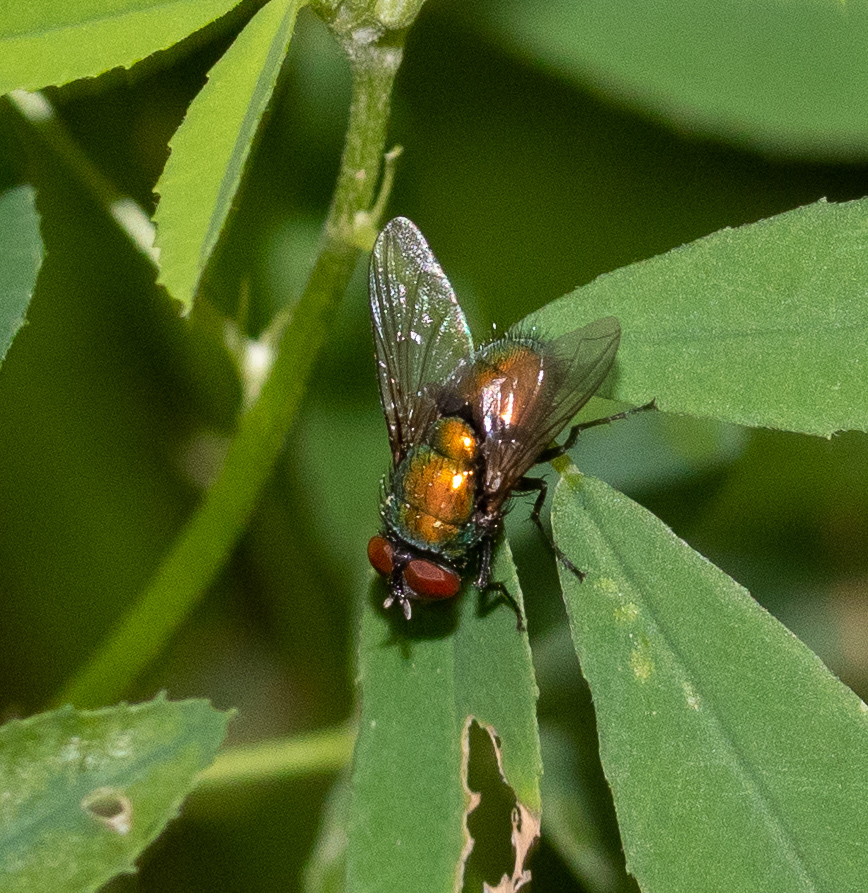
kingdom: Animalia
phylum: Arthropoda
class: Insecta
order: Diptera
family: Calliphoridae
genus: Lucilia
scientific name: Lucilia sericata
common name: Blow fly
